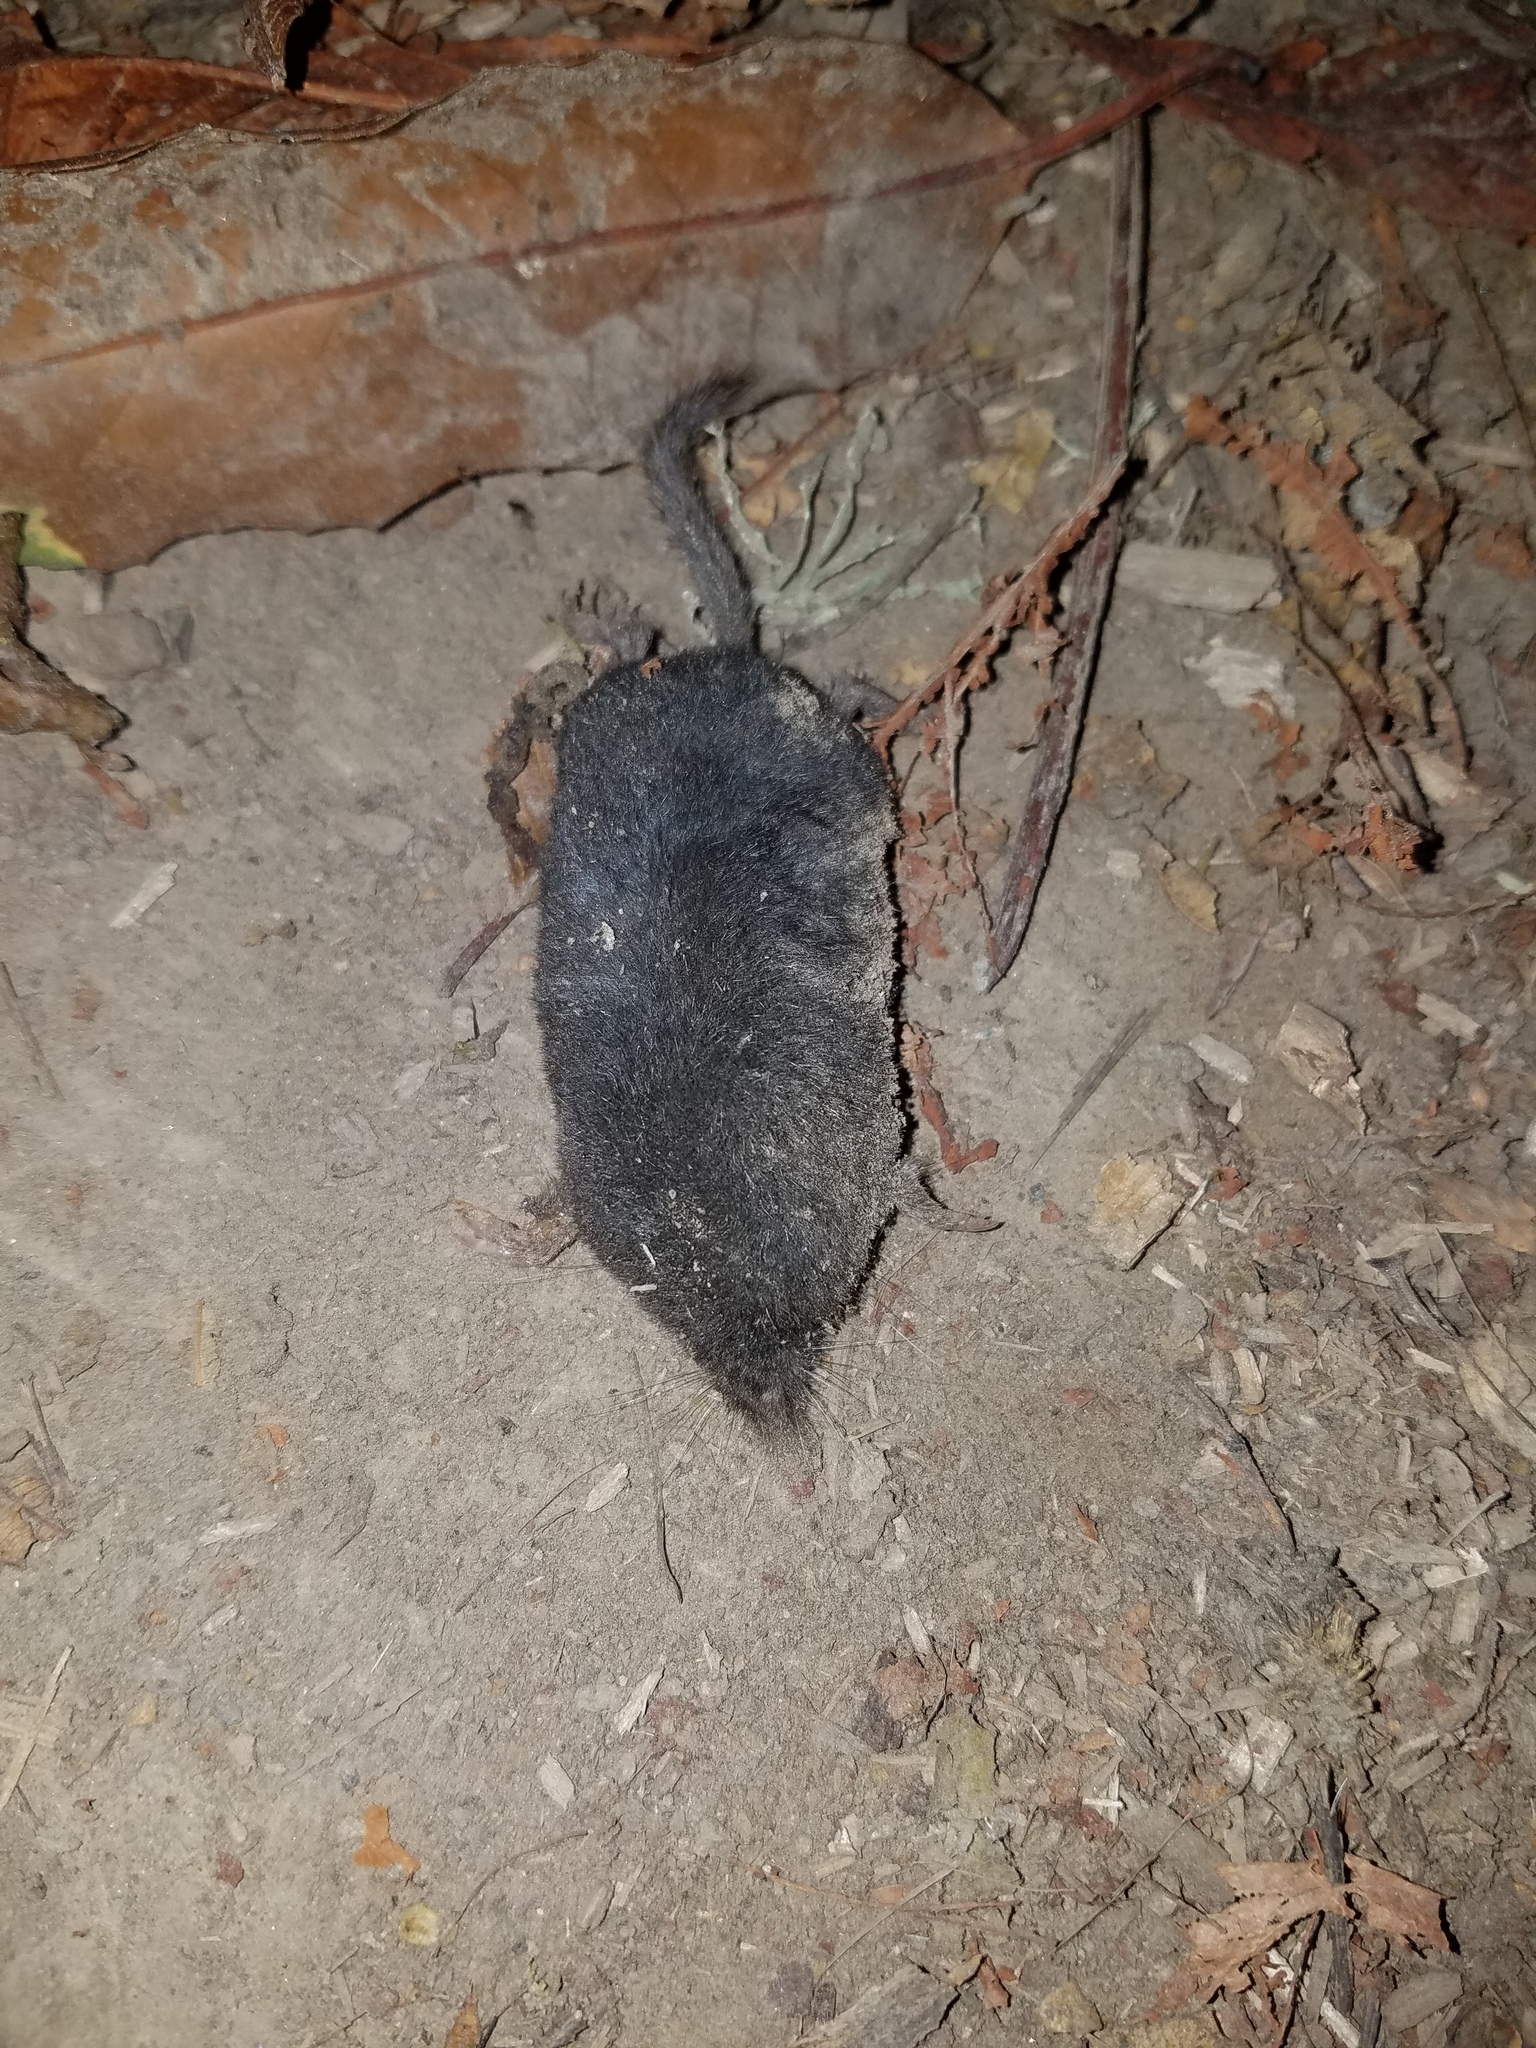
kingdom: Animalia
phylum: Chordata
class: Mammalia
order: Soricomorpha
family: Talpidae
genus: Neurotrichus
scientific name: Neurotrichus gibbsii
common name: American shrew mole
